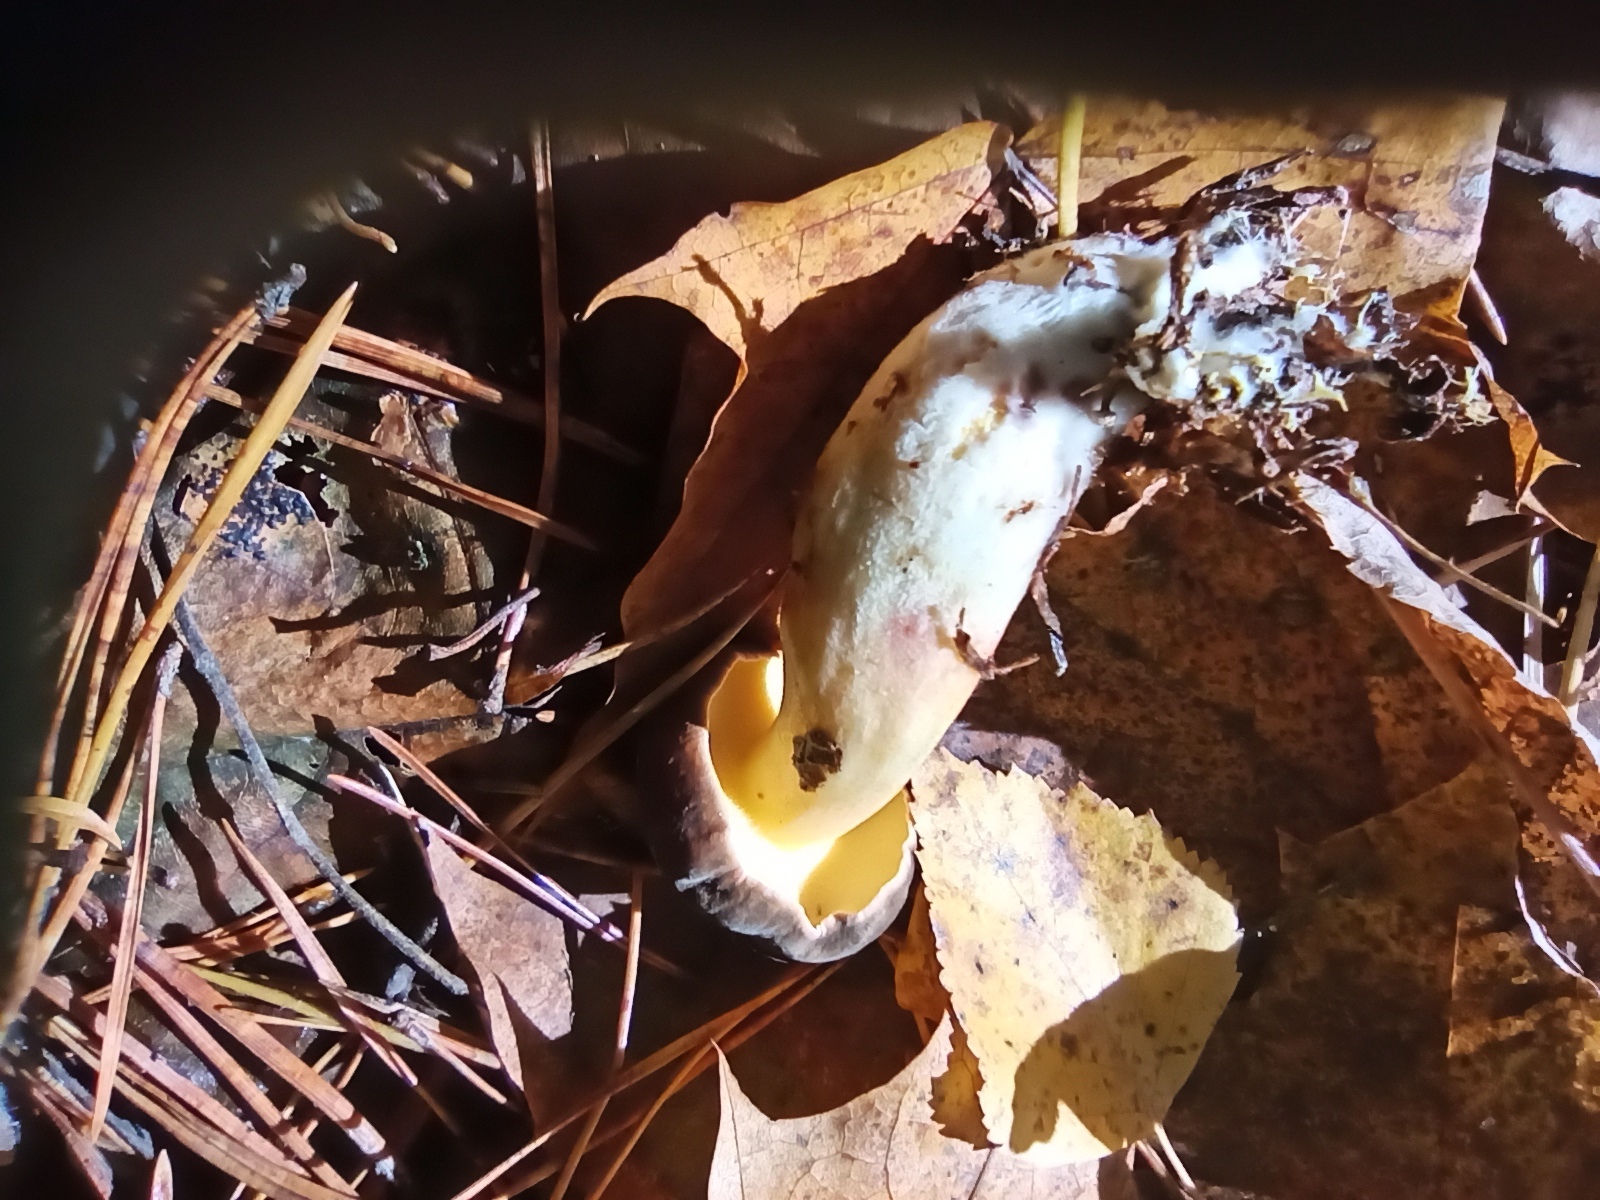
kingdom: Fungi
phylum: Basidiomycota
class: Agaricomycetes
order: Boletales
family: Boletaceae
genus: Xerocomellus
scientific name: Xerocomellus pruinatus
